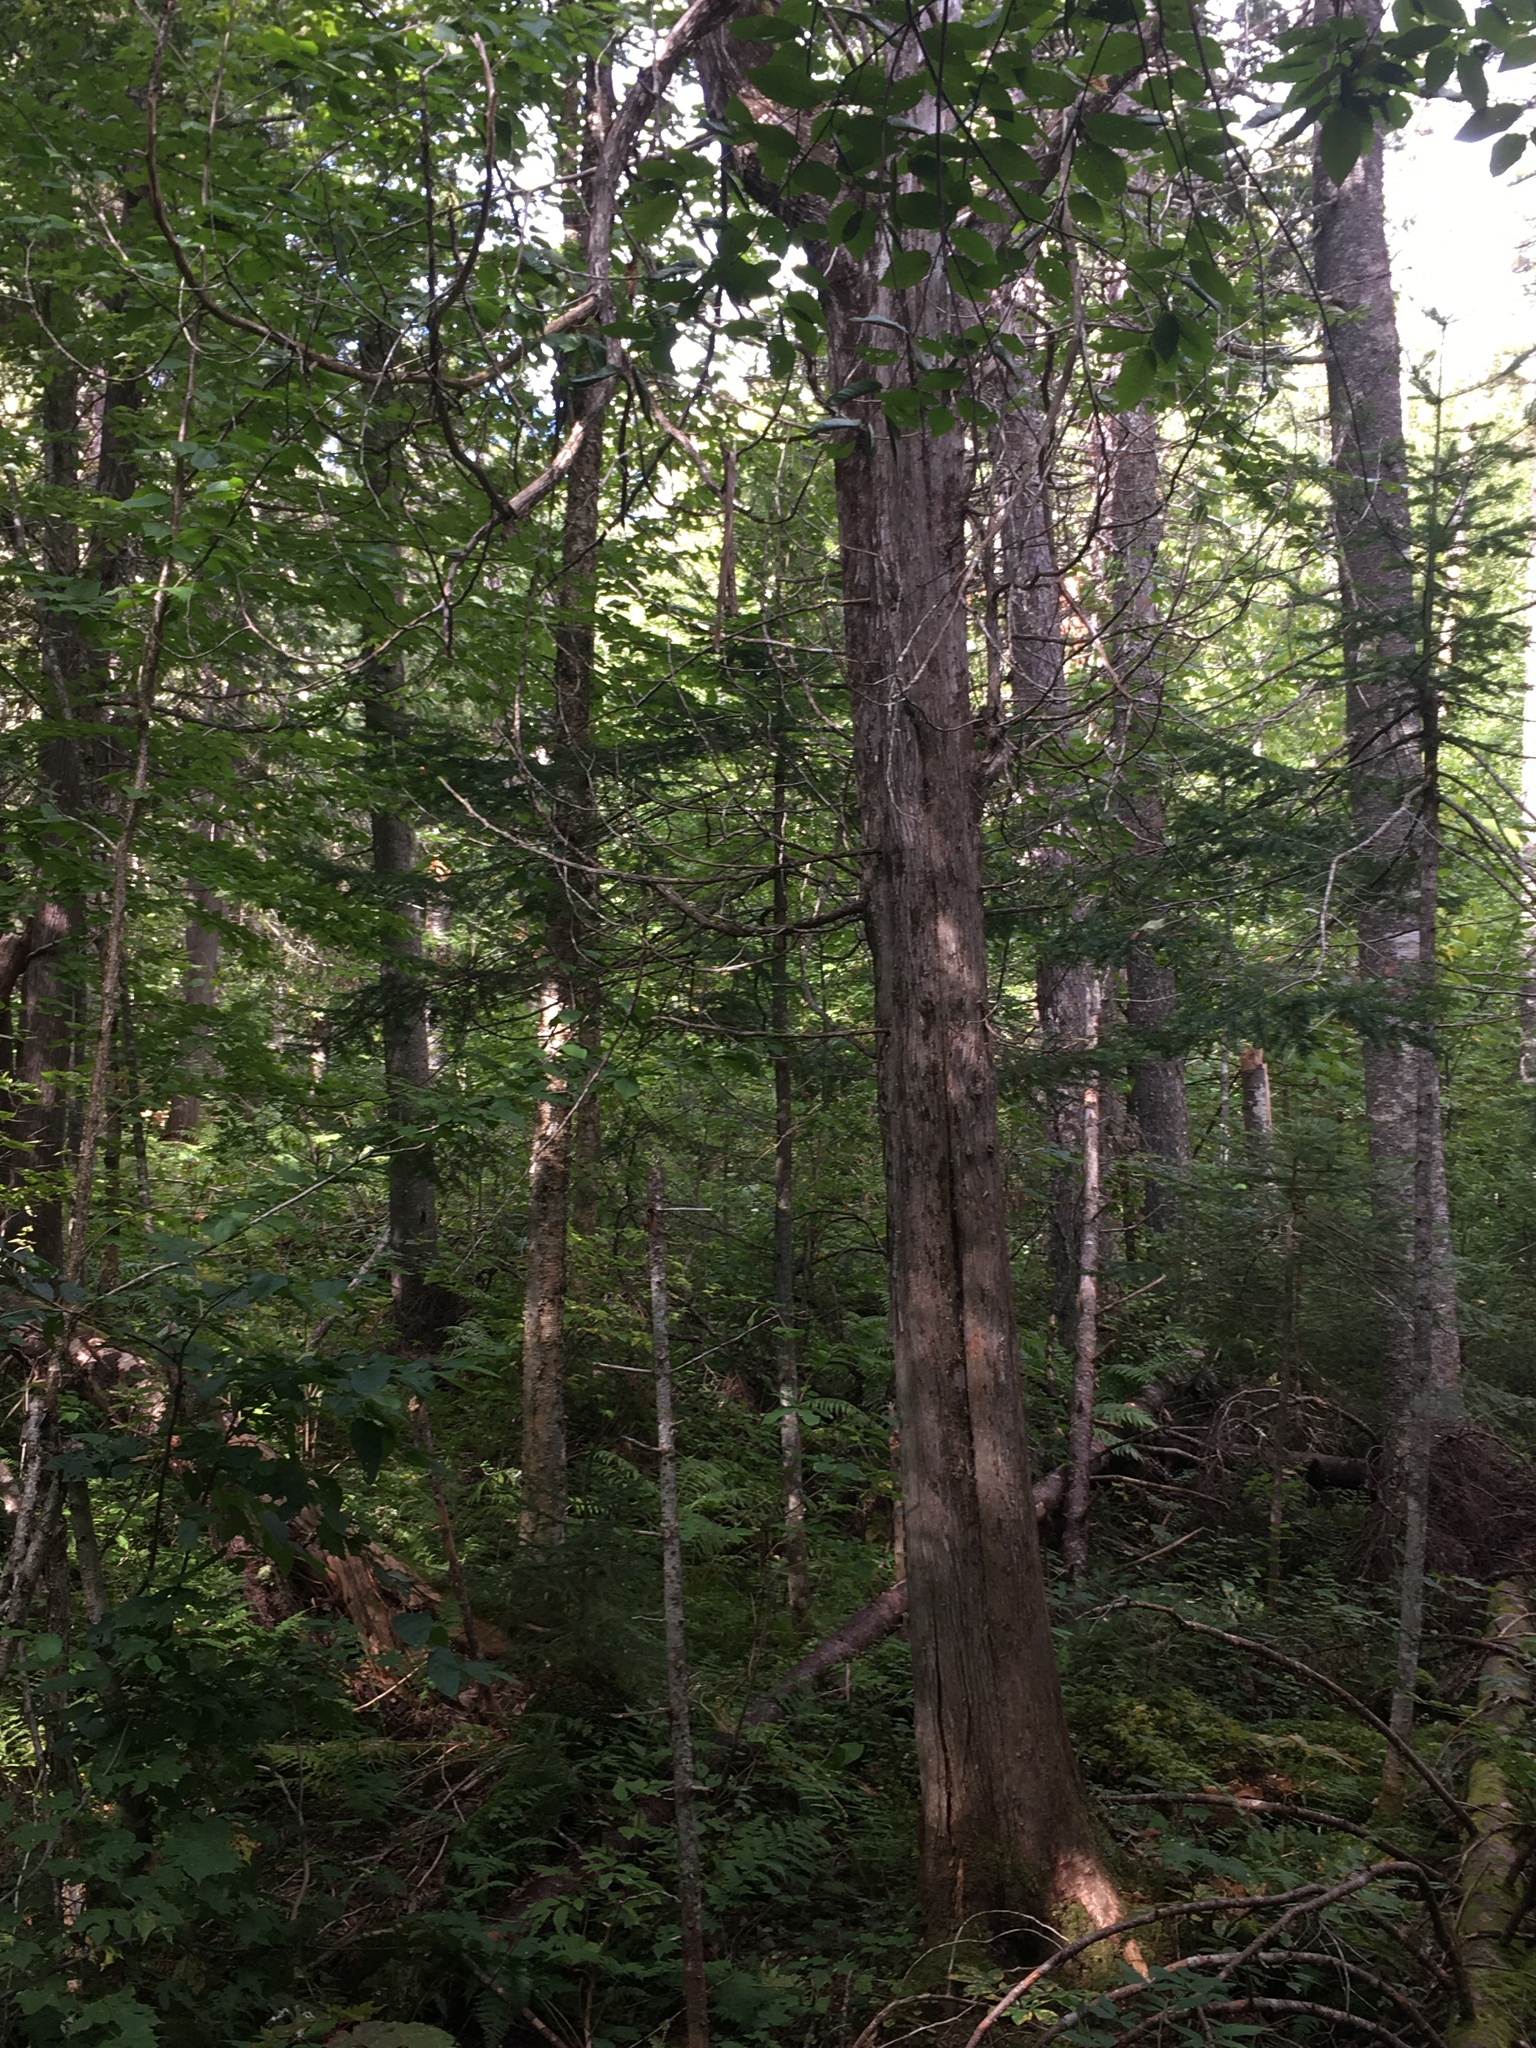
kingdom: Plantae
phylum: Tracheophyta
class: Pinopsida
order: Pinales
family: Cupressaceae
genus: Thuja
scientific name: Thuja occidentalis
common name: Northern white-cedar
